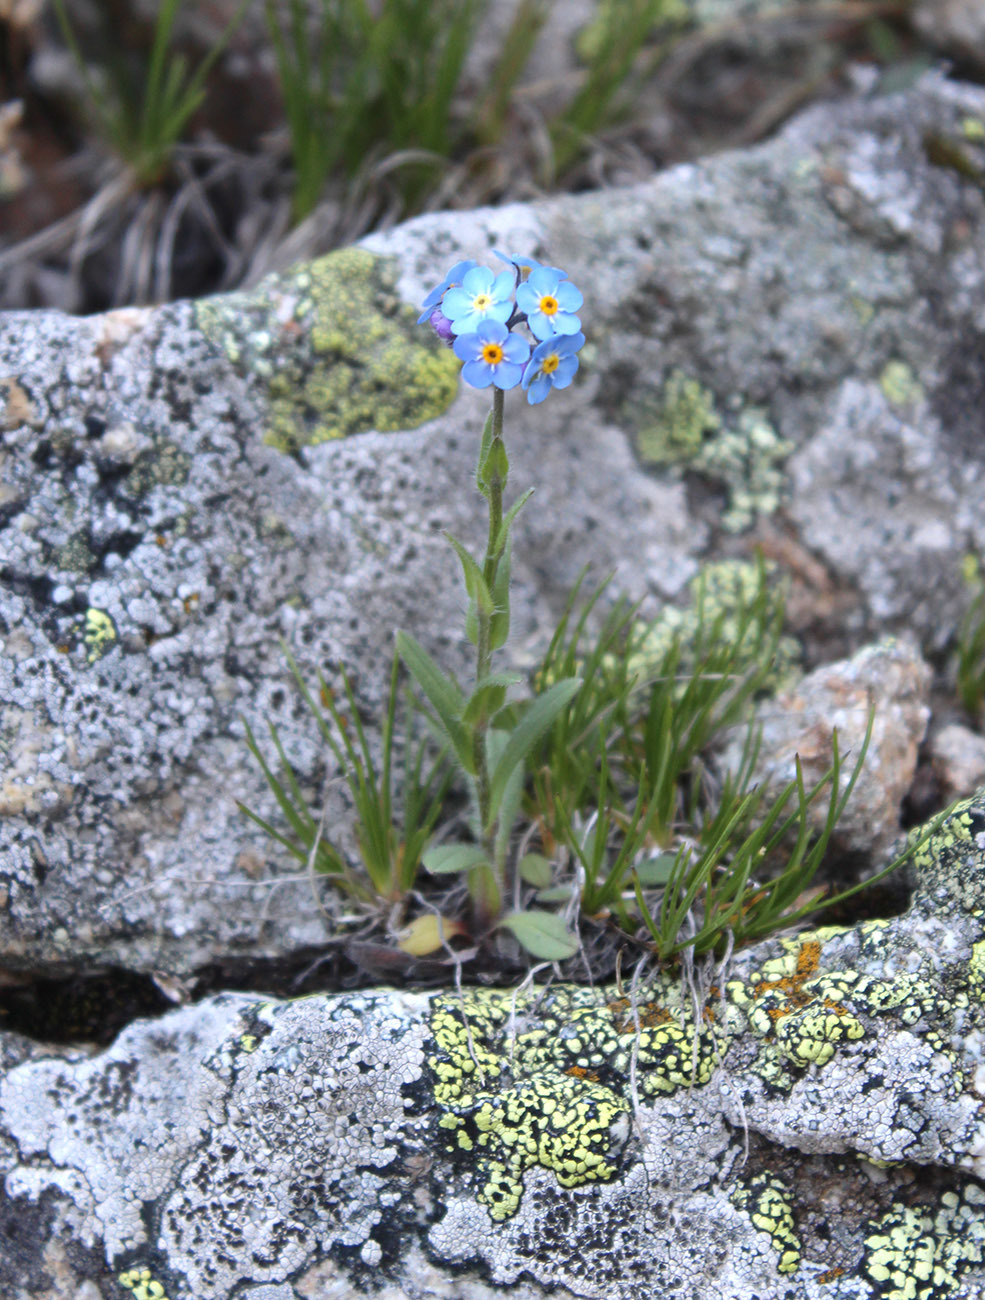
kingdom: Plantae
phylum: Tracheophyta
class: Magnoliopsida
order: Boraginales
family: Boraginaceae
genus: Myosotis
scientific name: Myosotis alpestris
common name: Alpine forget-me-not
